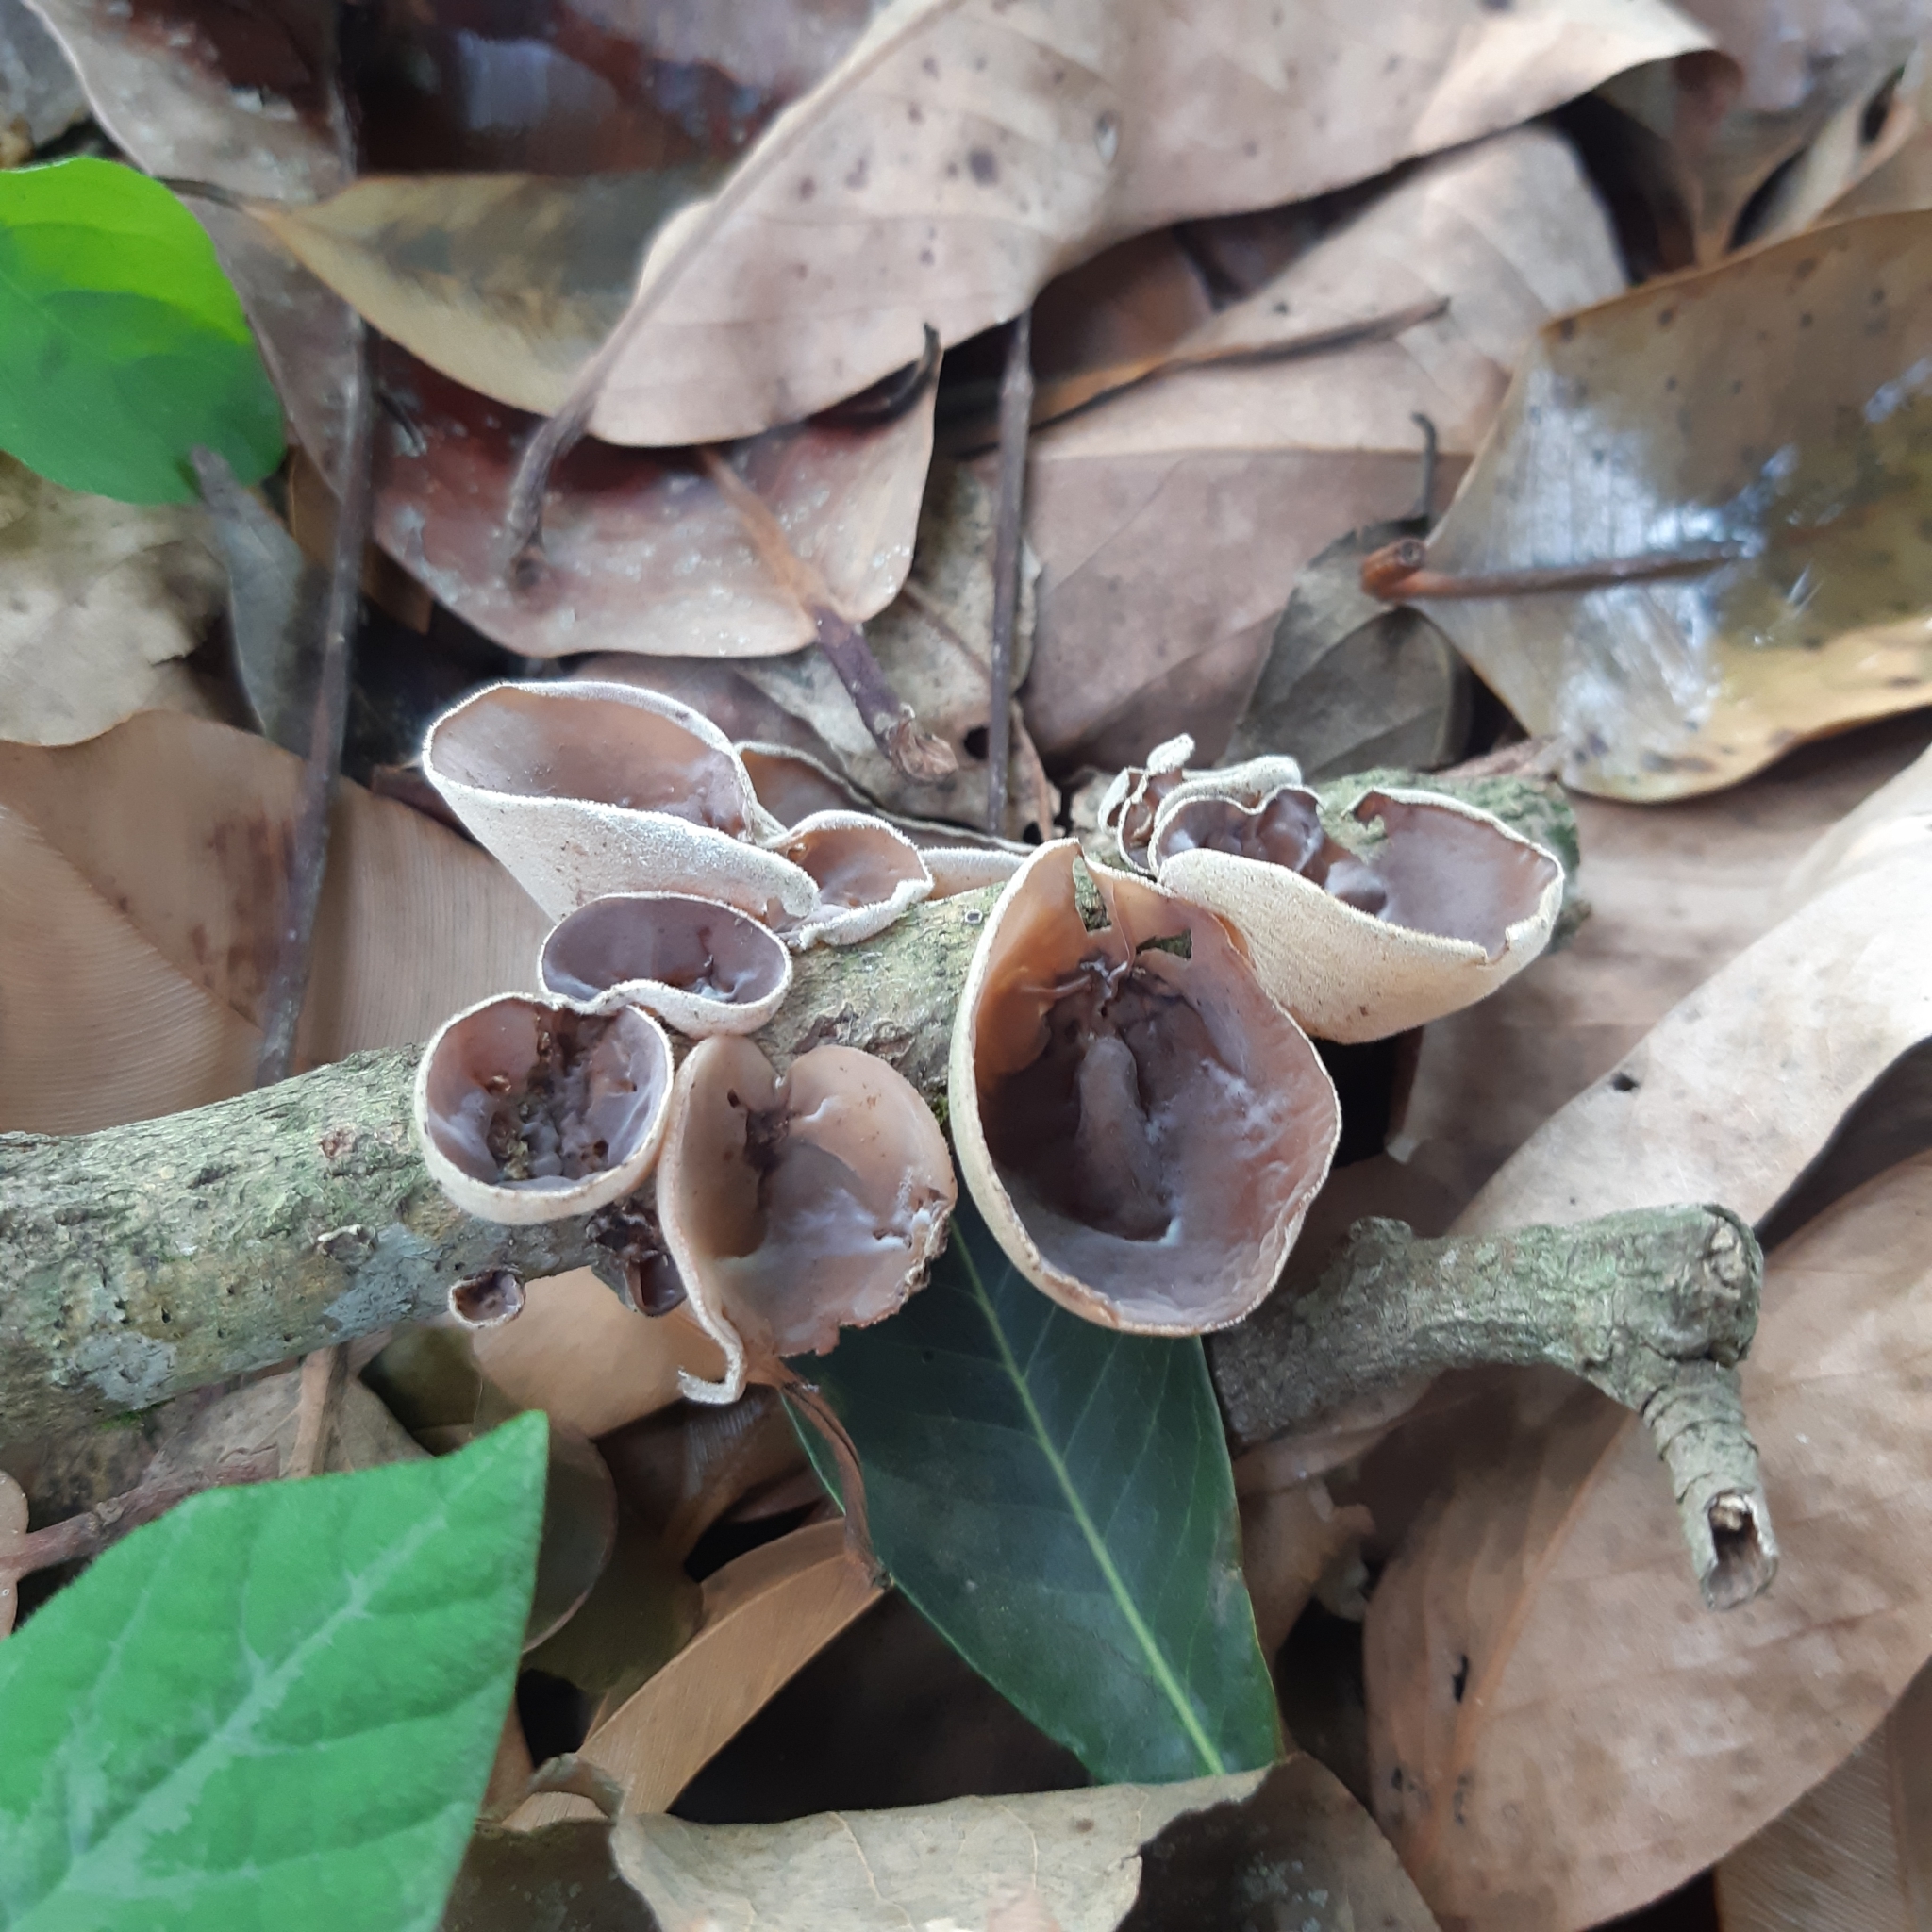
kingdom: Fungi
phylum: Basidiomycota
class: Agaricomycetes
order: Auriculariales
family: Auriculariaceae
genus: Auricularia
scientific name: Auricularia cornea
